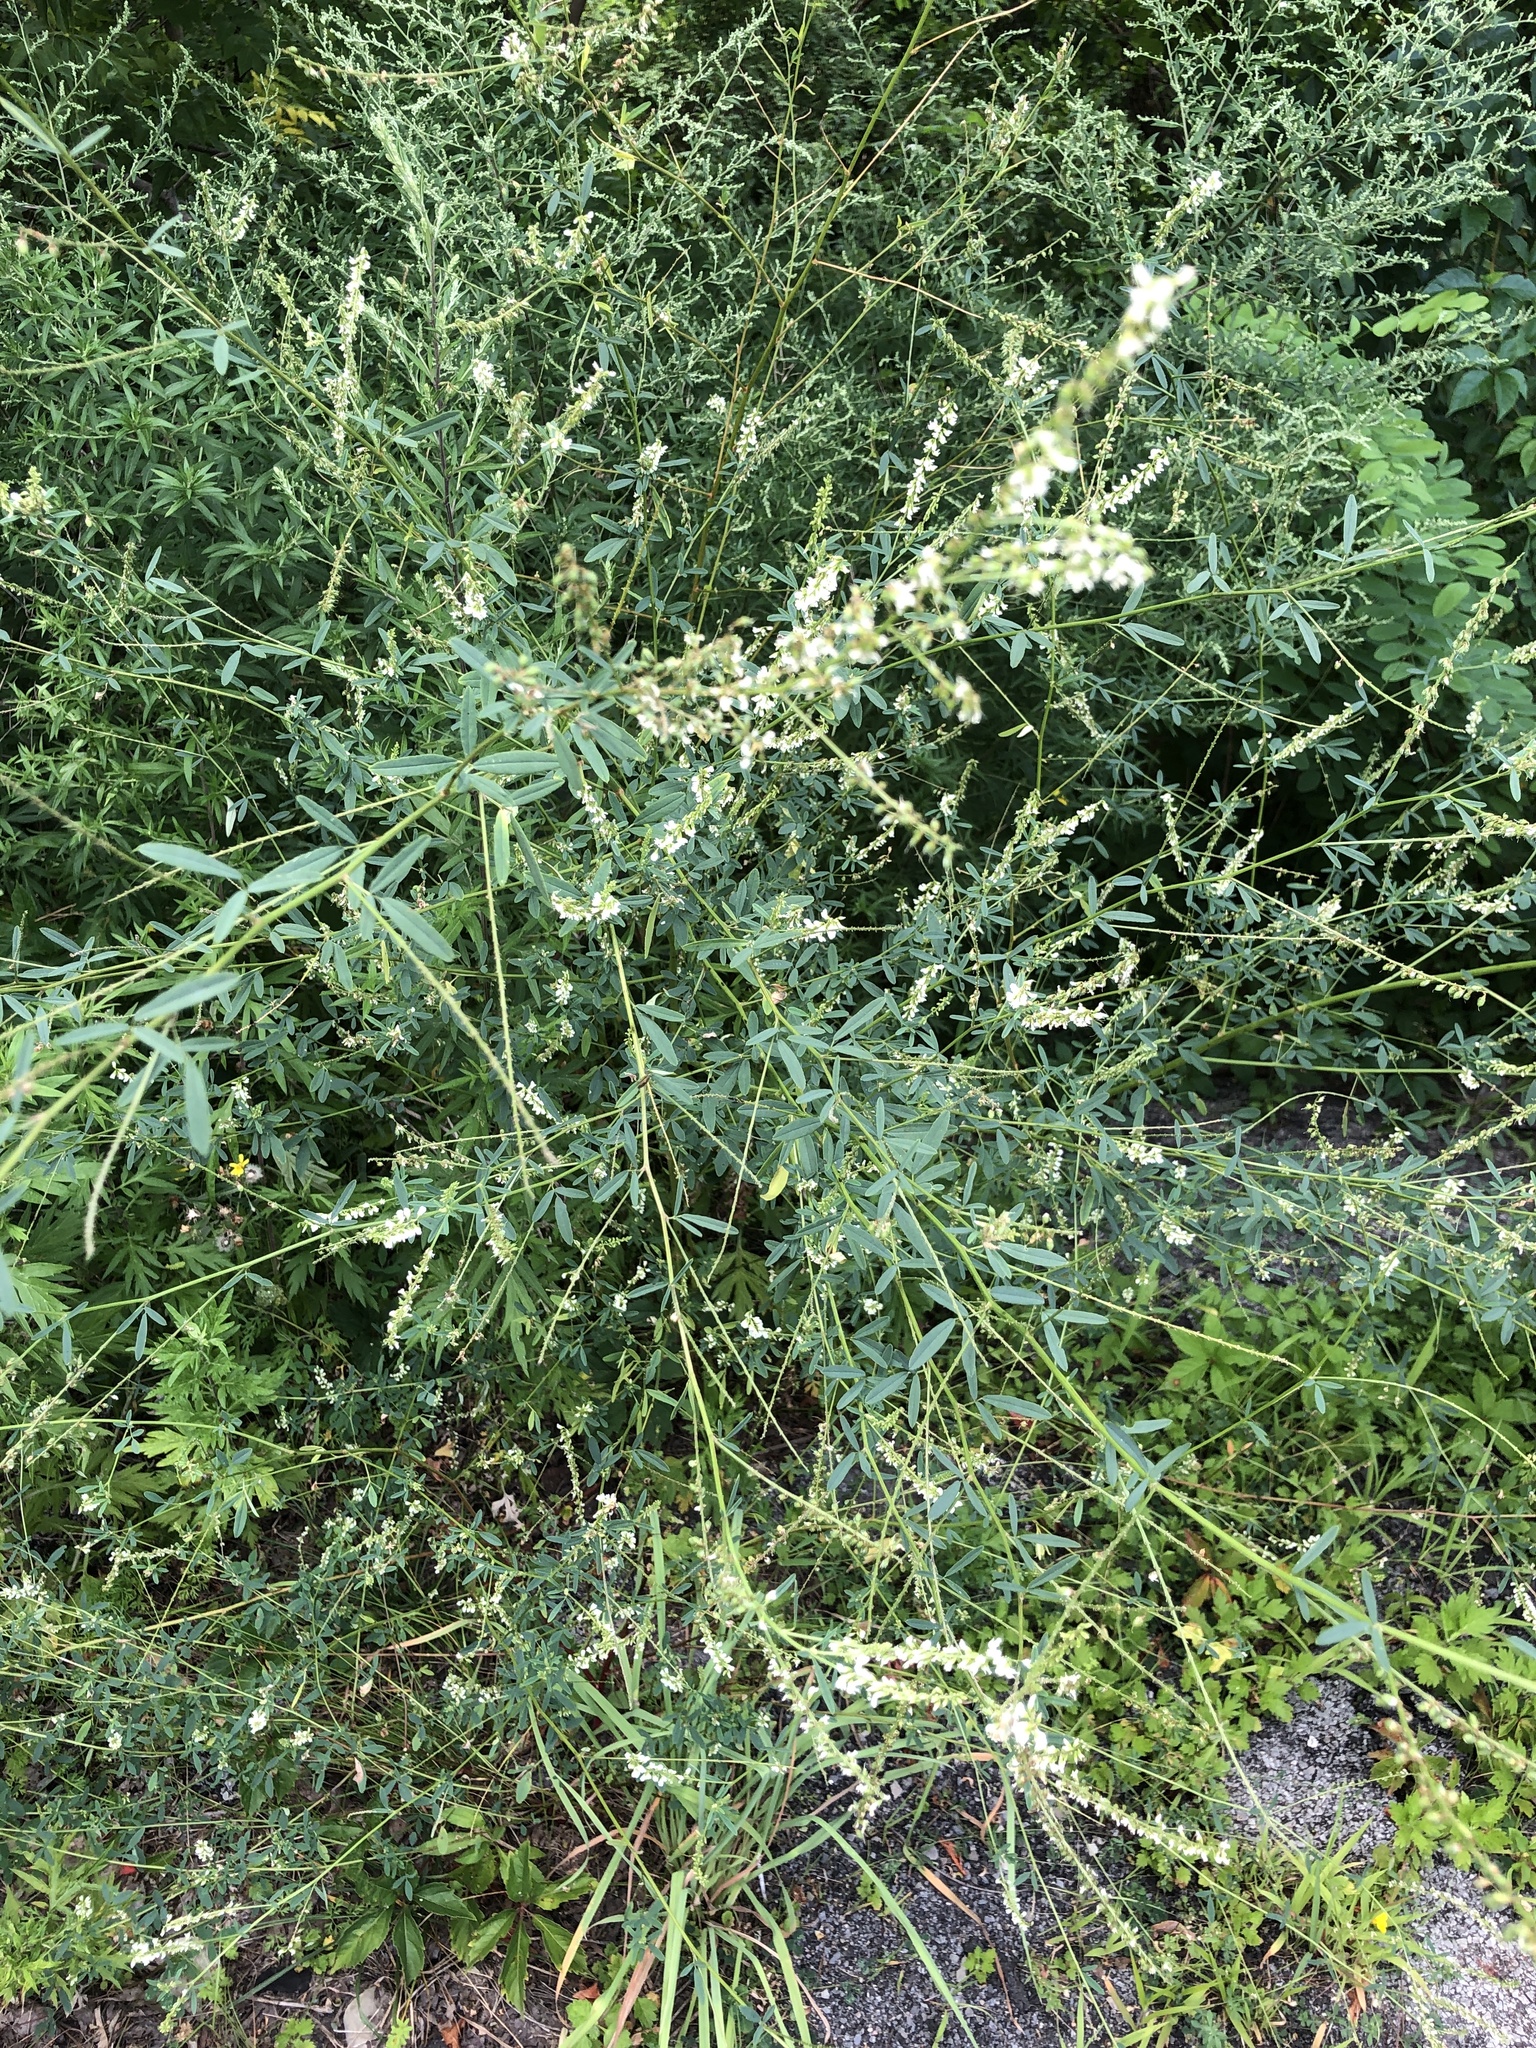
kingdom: Plantae
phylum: Tracheophyta
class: Magnoliopsida
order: Fabales
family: Fabaceae
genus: Melilotus
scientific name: Melilotus albus
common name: White melilot
